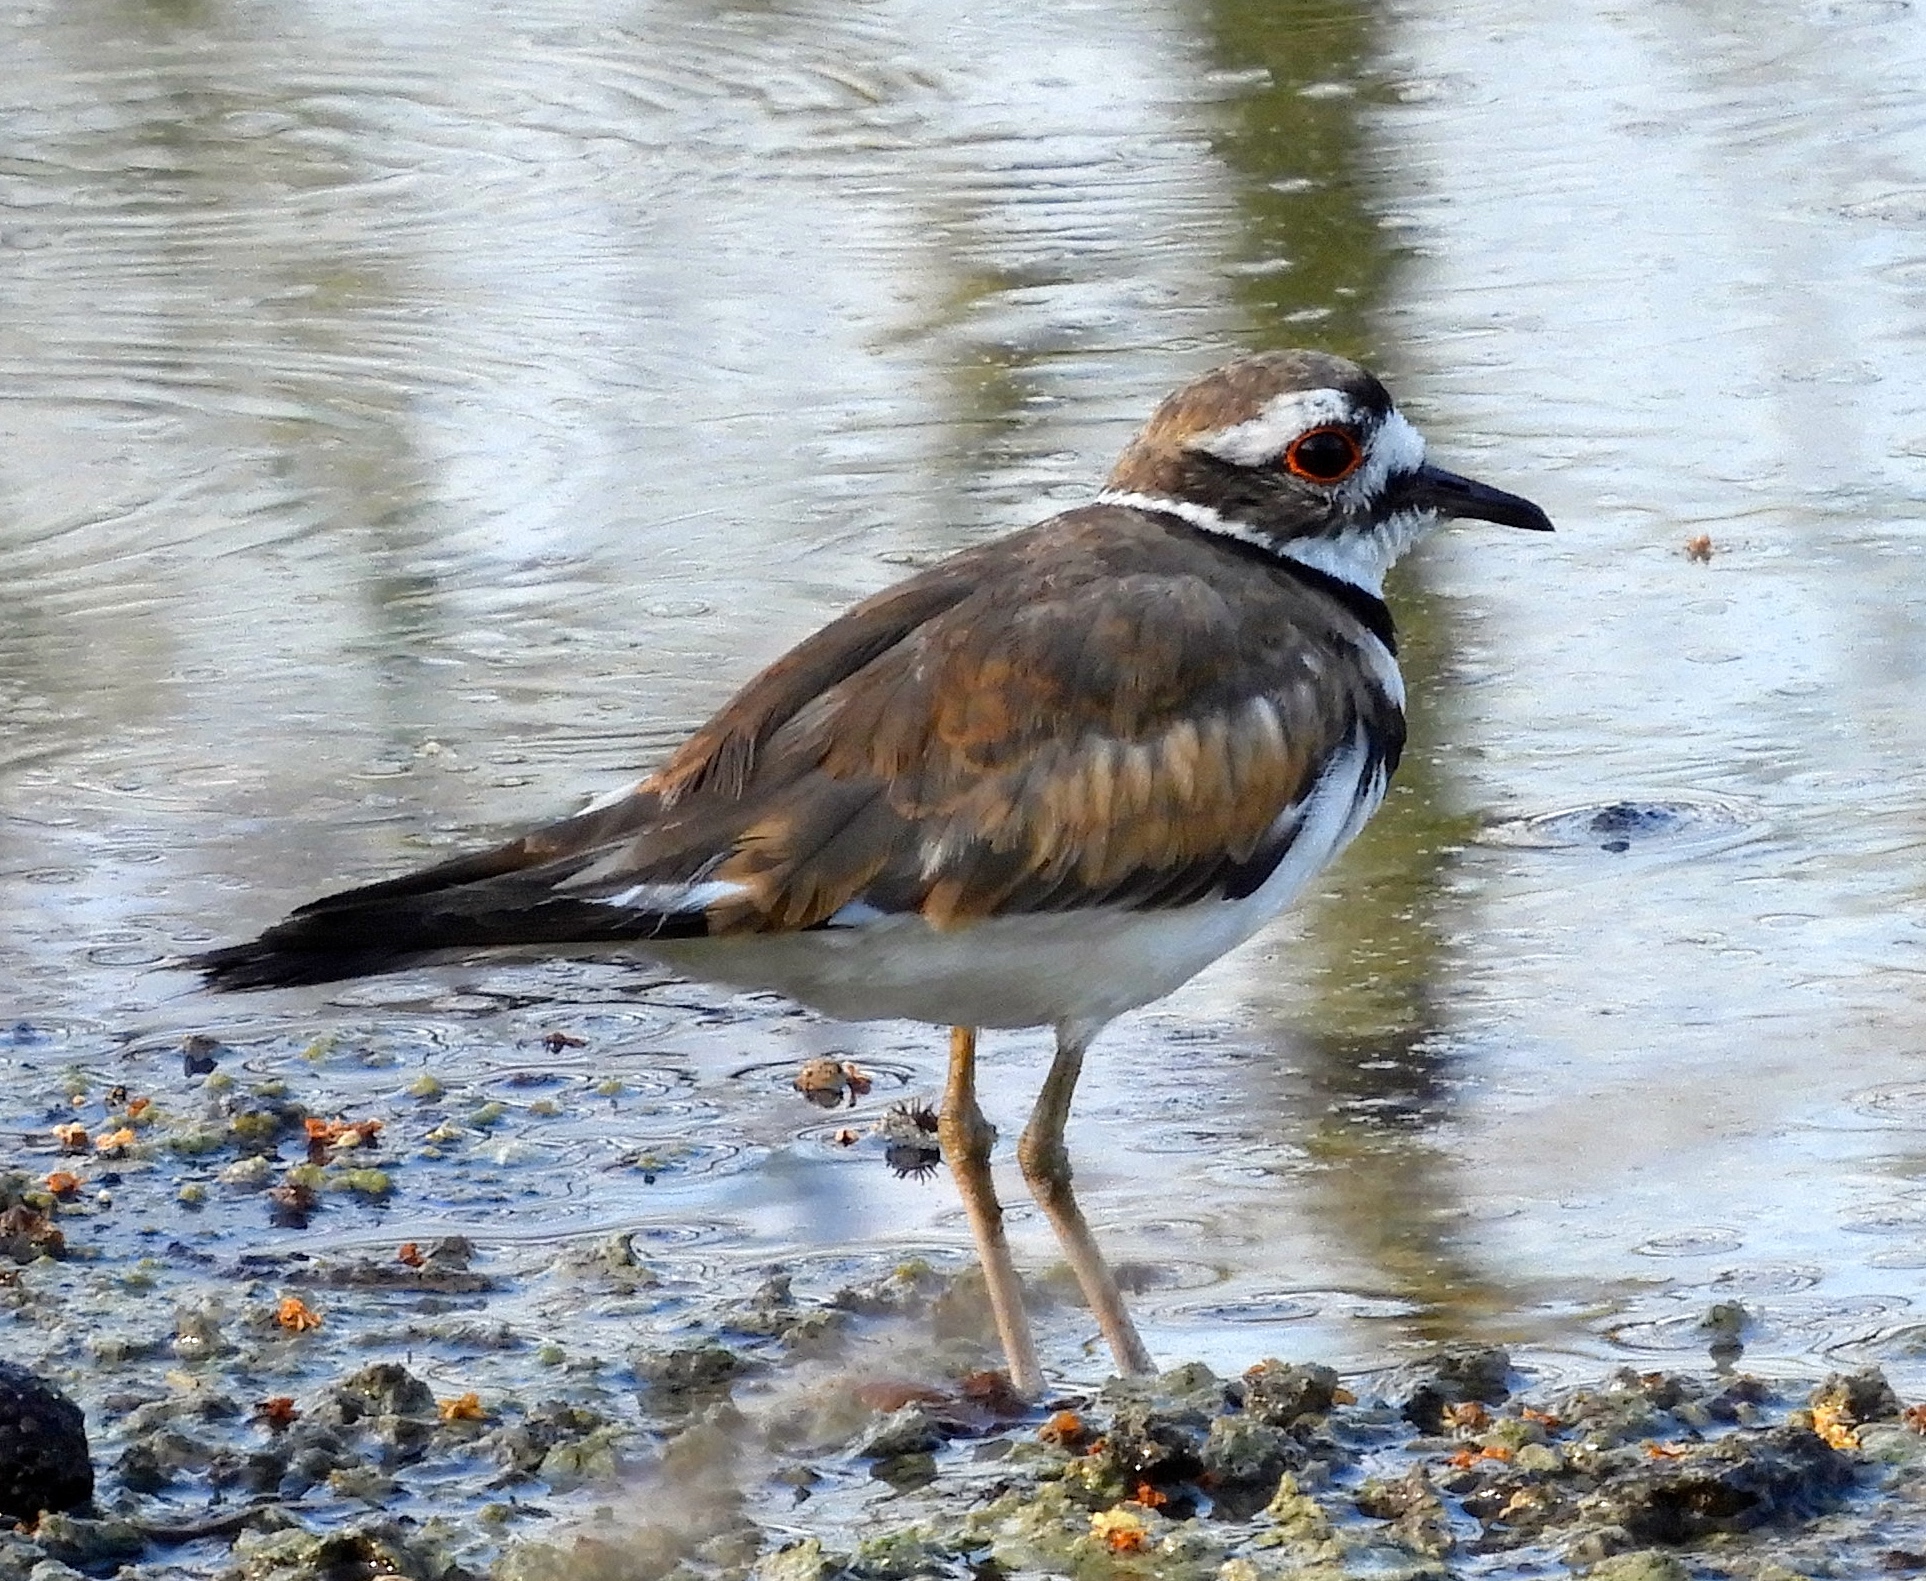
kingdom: Animalia
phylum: Chordata
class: Aves
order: Charadriiformes
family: Charadriidae
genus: Charadrius
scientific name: Charadrius vociferus
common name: Killdeer
